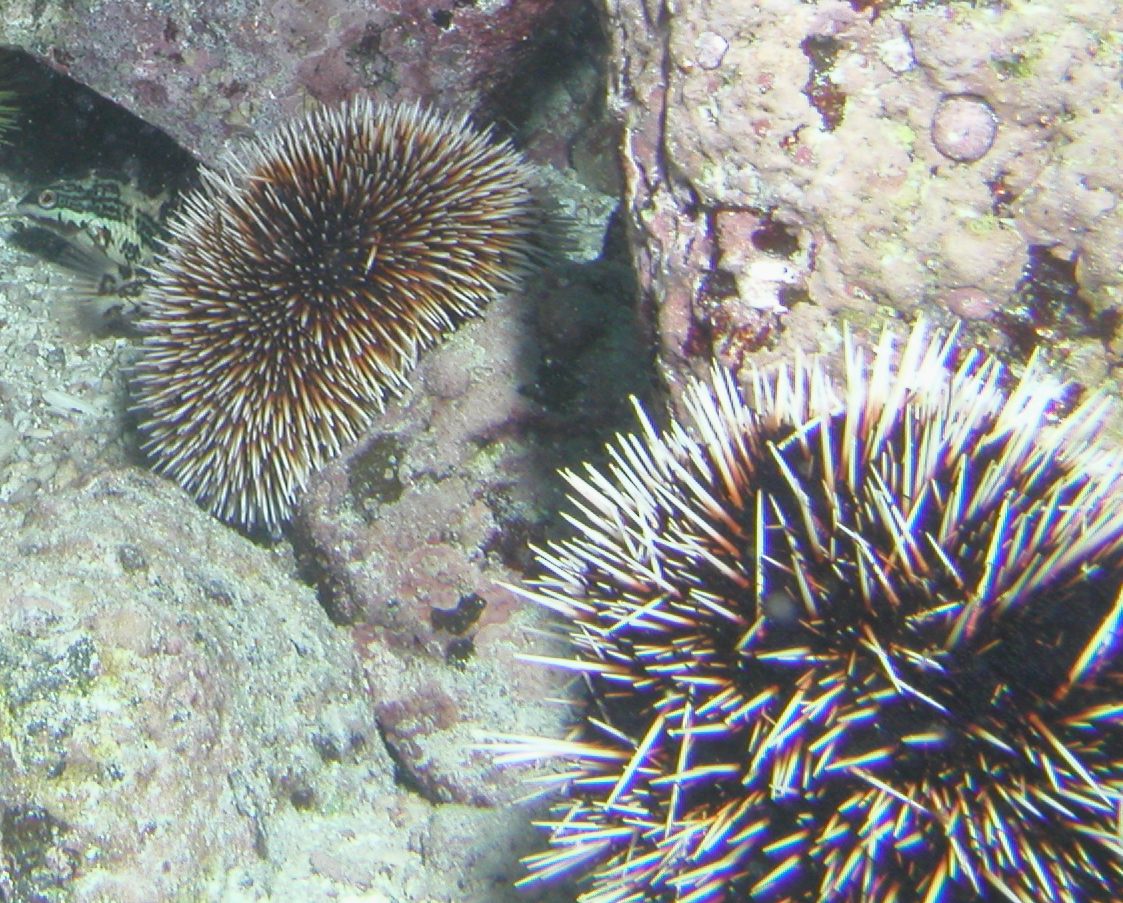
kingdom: Animalia
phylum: Echinodermata
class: Echinoidea
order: Camarodonta
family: Toxopneustidae
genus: Tripneustes
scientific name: Tripneustes depressus
